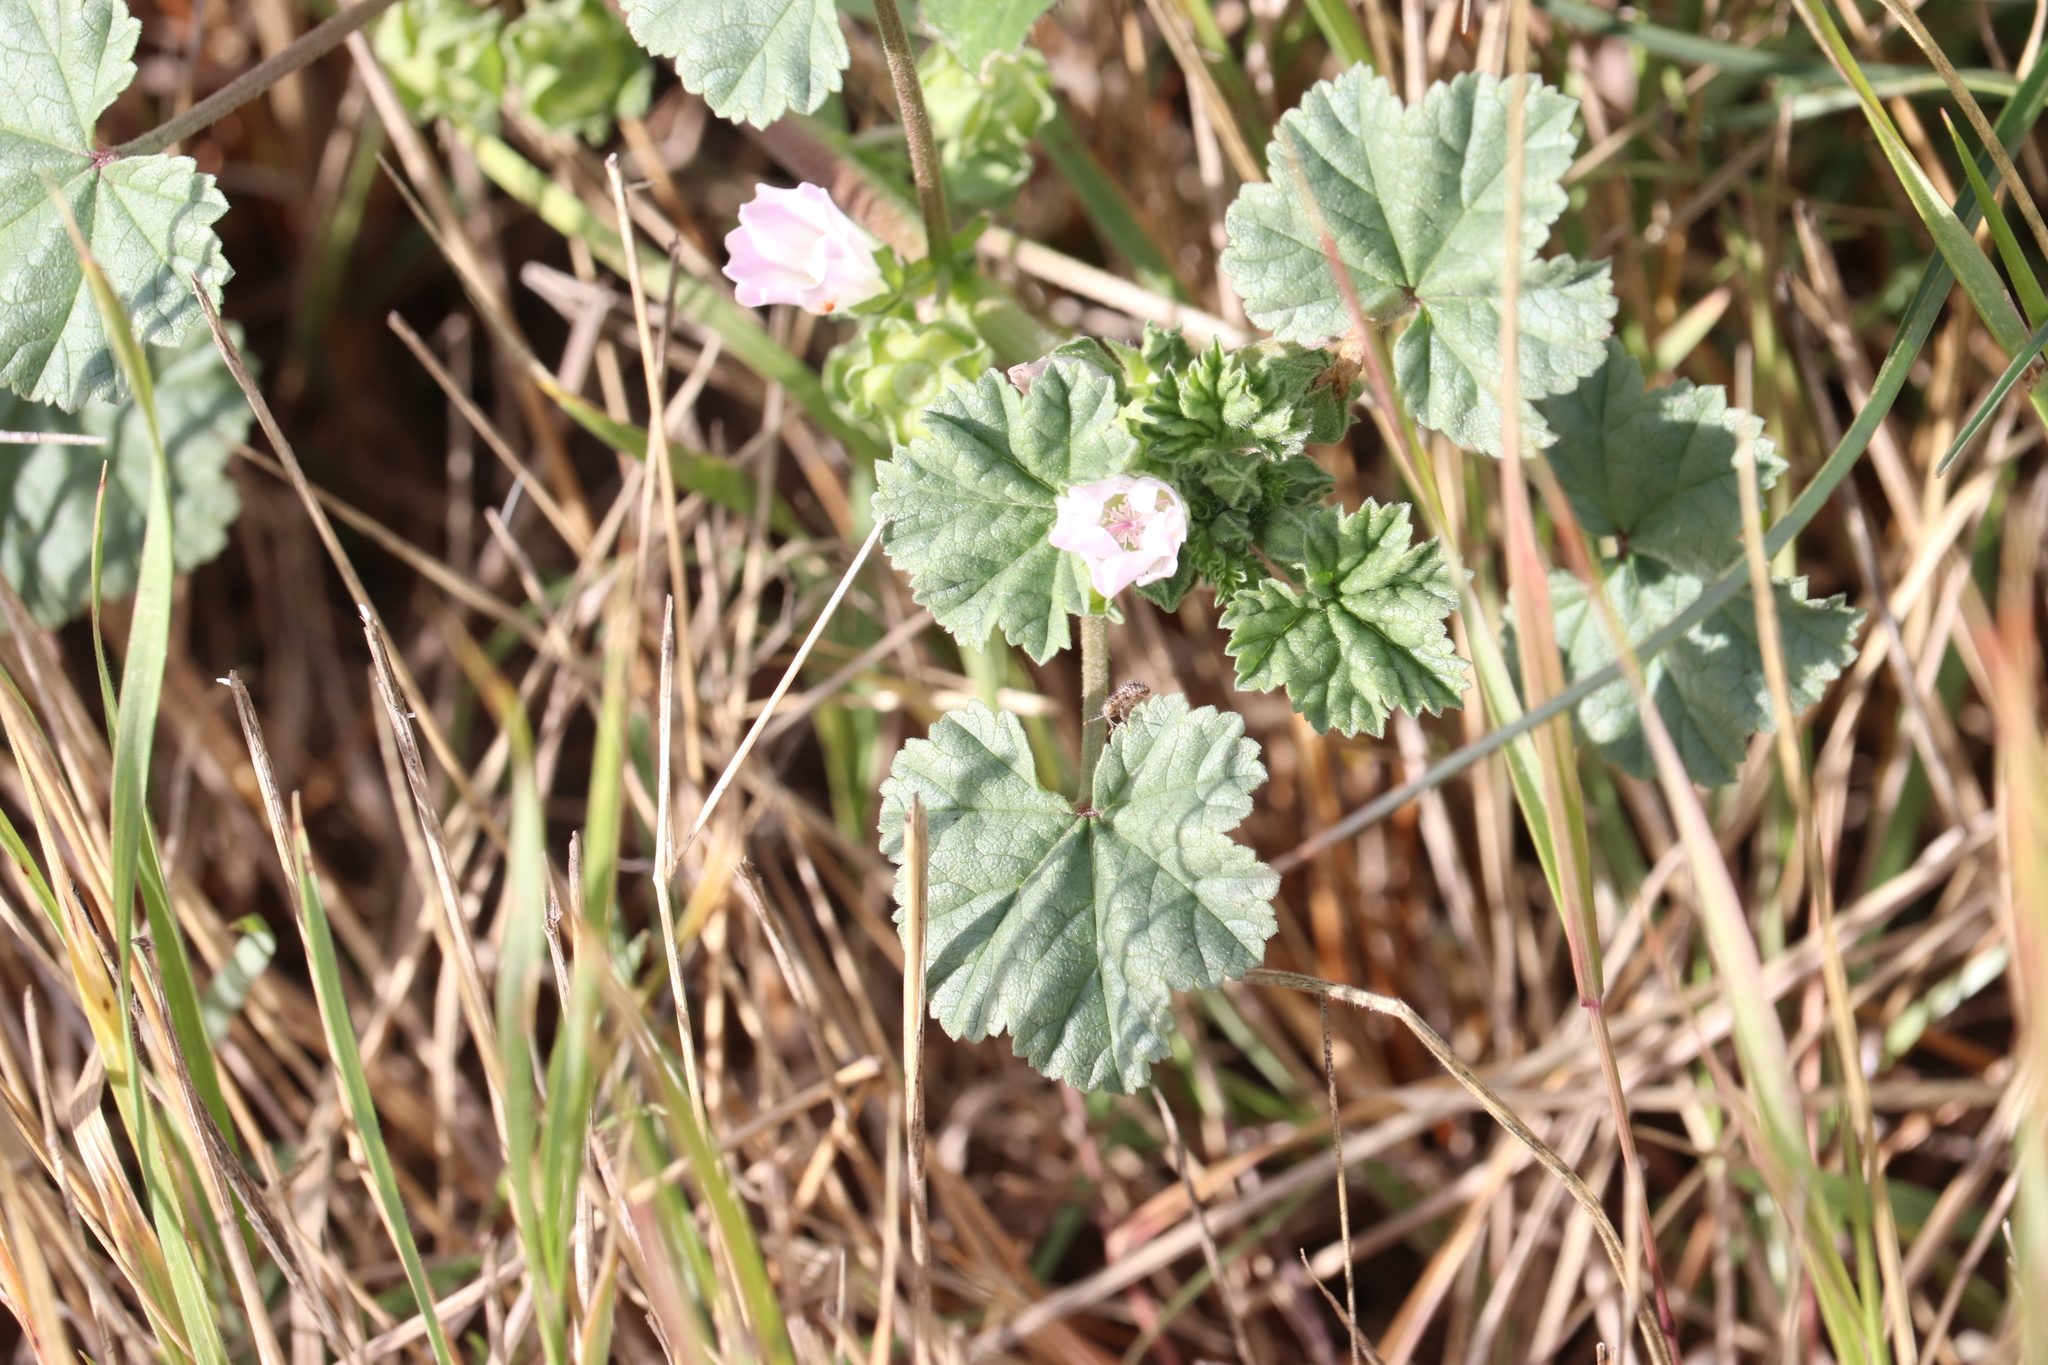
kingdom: Plantae
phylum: Tracheophyta
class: Magnoliopsida
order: Malvales
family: Malvaceae
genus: Malva
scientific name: Malva neglecta
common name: Common mallow
